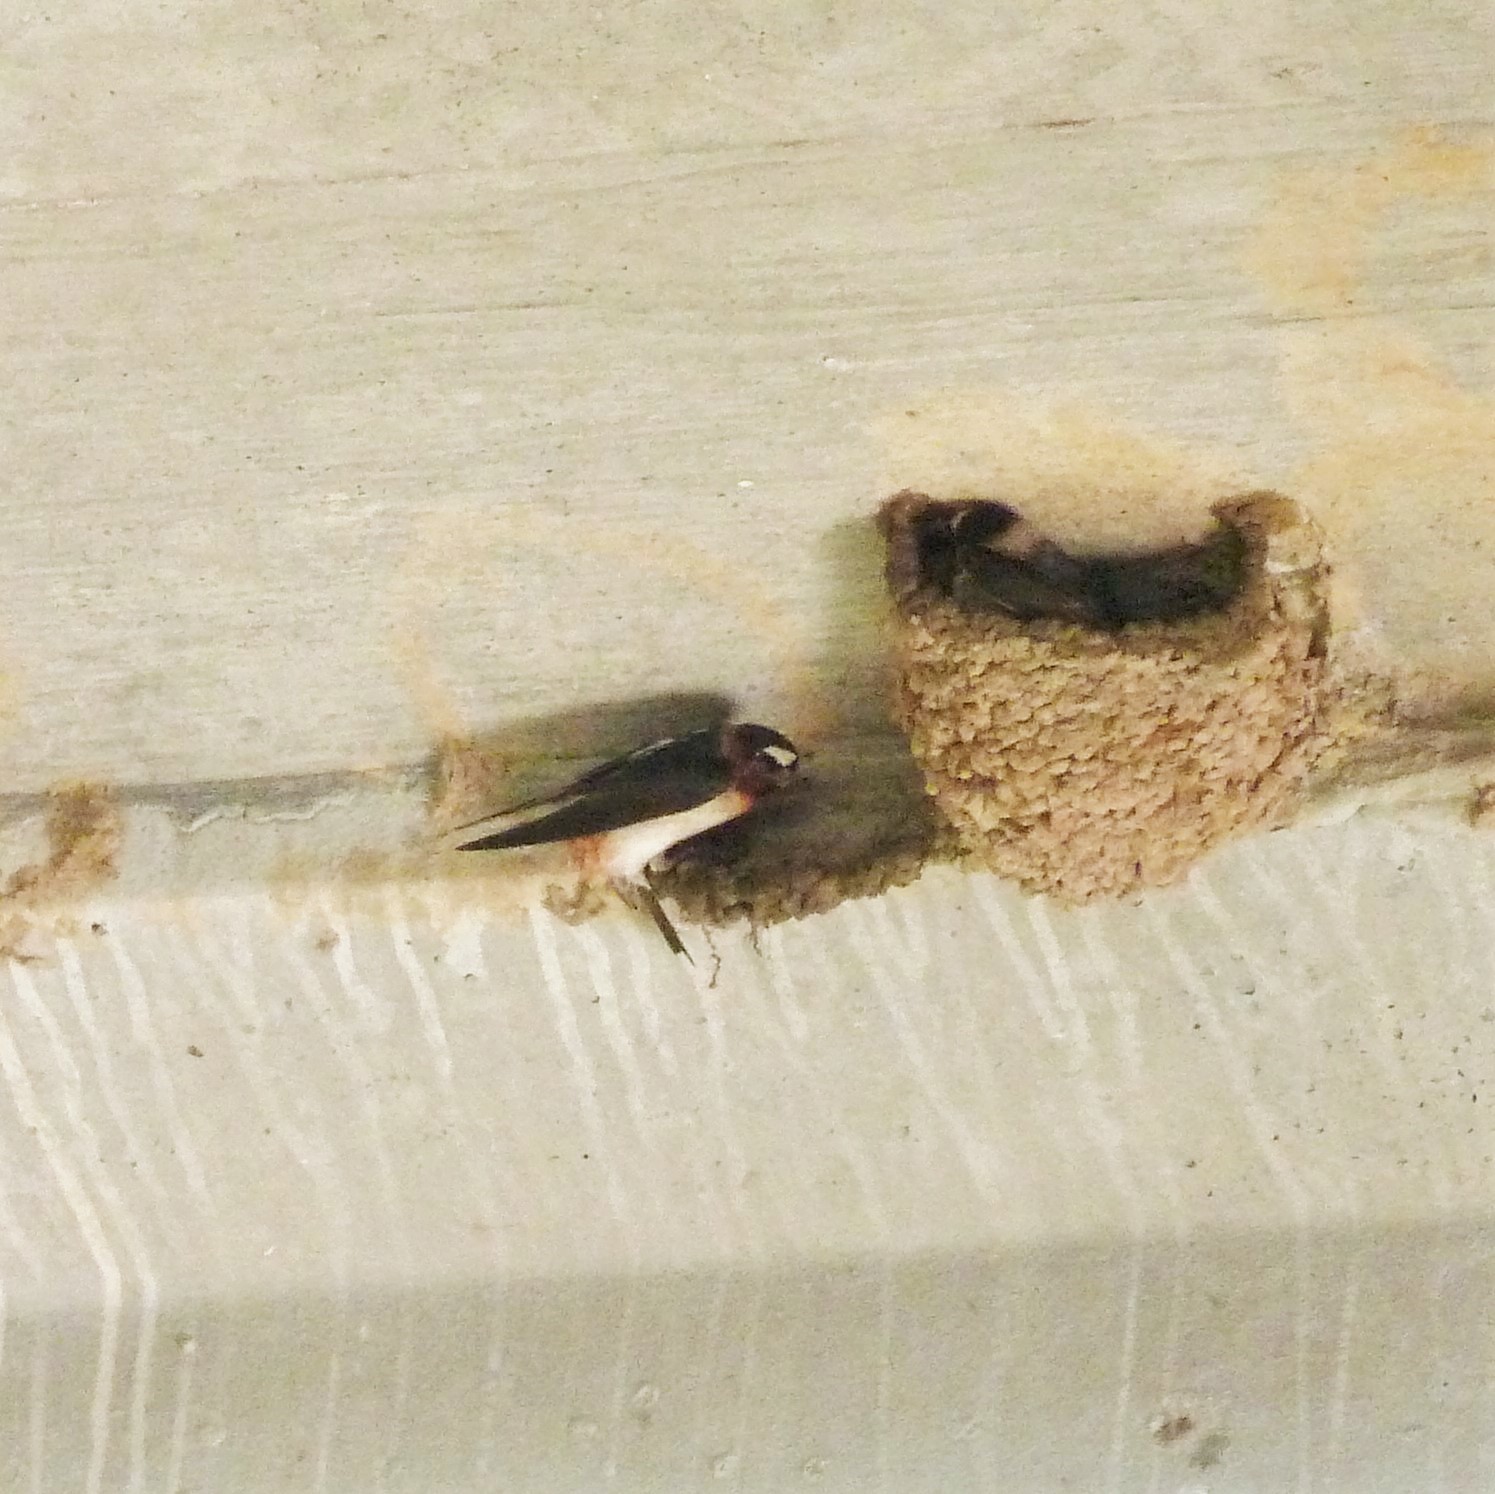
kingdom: Animalia
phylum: Chordata
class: Aves
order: Passeriformes
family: Hirundinidae
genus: Petrochelidon
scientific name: Petrochelidon pyrrhonota
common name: American cliff swallow
